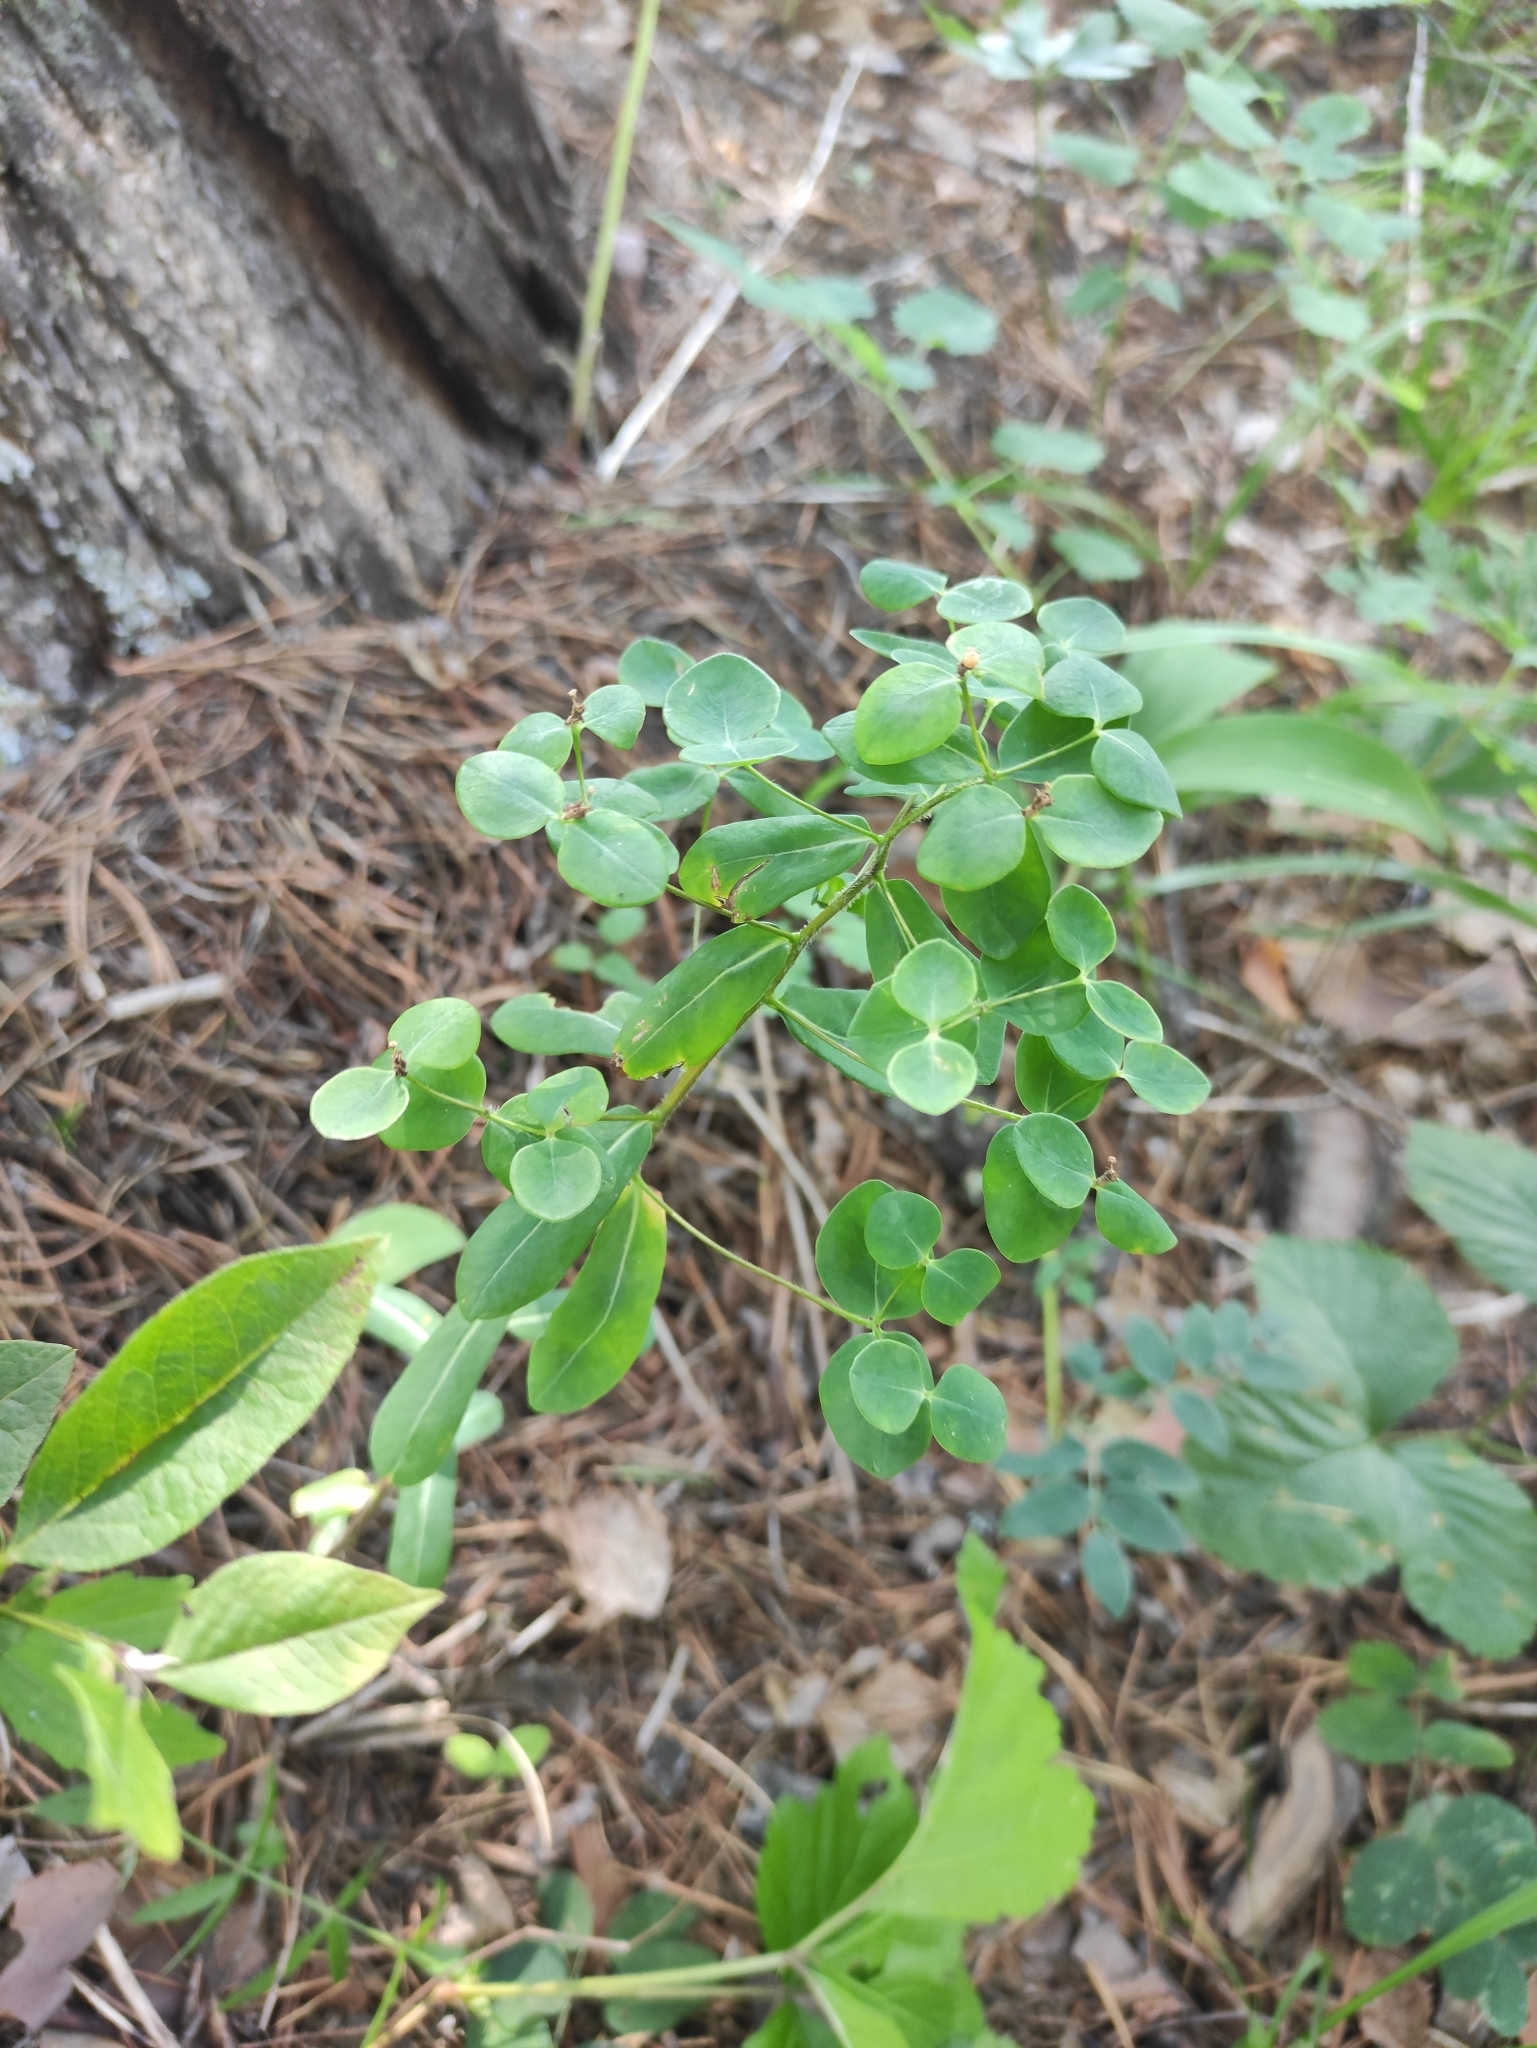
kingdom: Plantae
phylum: Tracheophyta
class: Magnoliopsida
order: Malpighiales
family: Euphorbiaceae
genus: Euphorbia
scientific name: Euphorbia jenisseiensis
